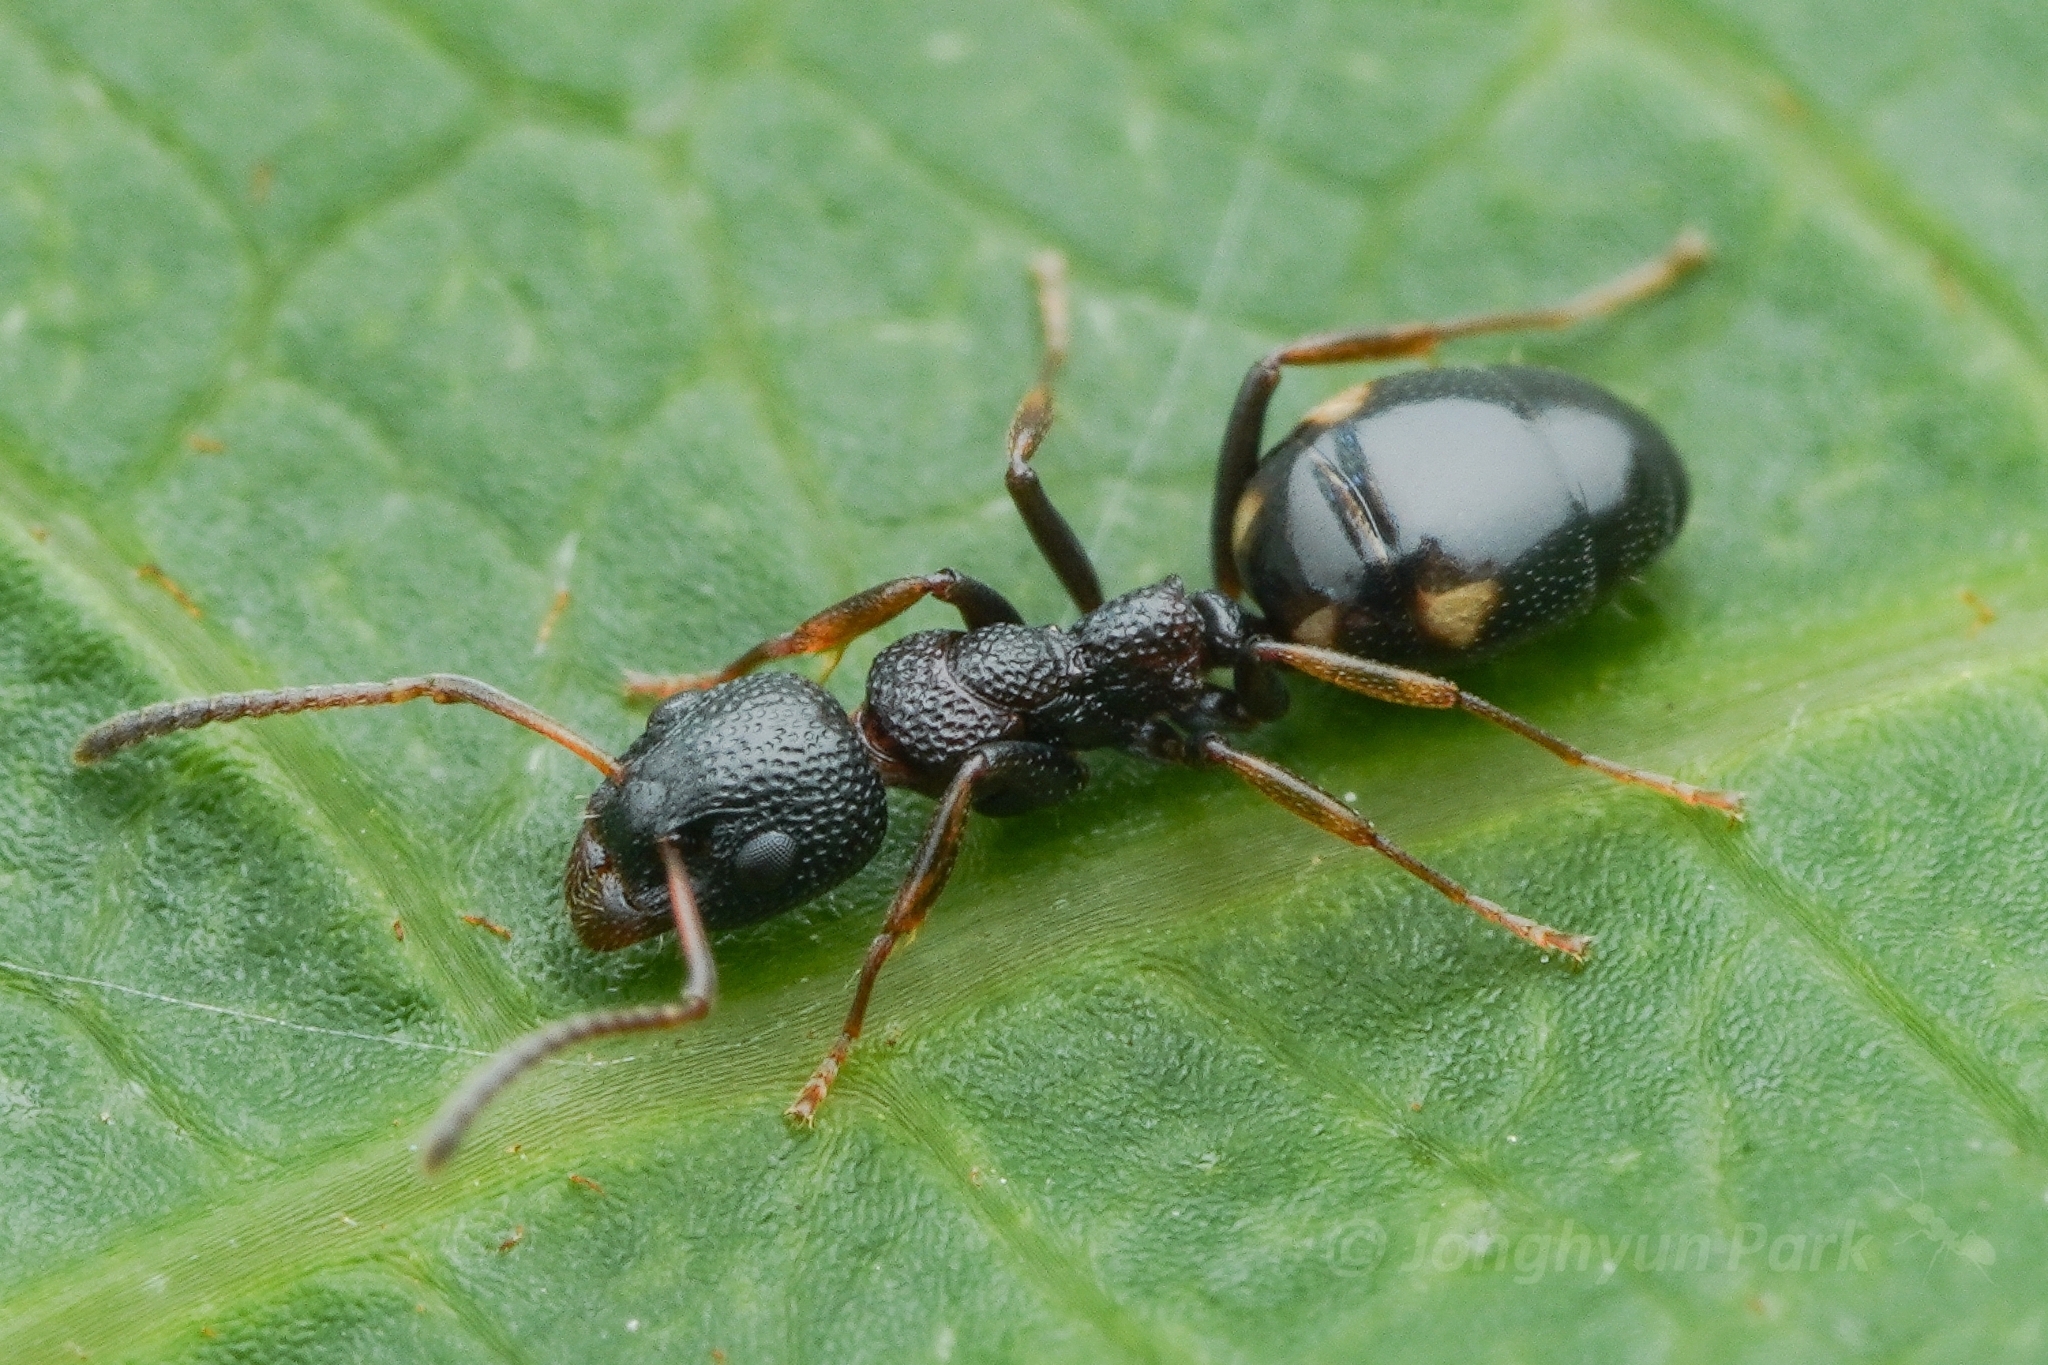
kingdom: Animalia
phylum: Arthropoda
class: Insecta
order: Hymenoptera
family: Formicidae
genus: Dolichoderus
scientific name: Dolichoderus sibiricus
